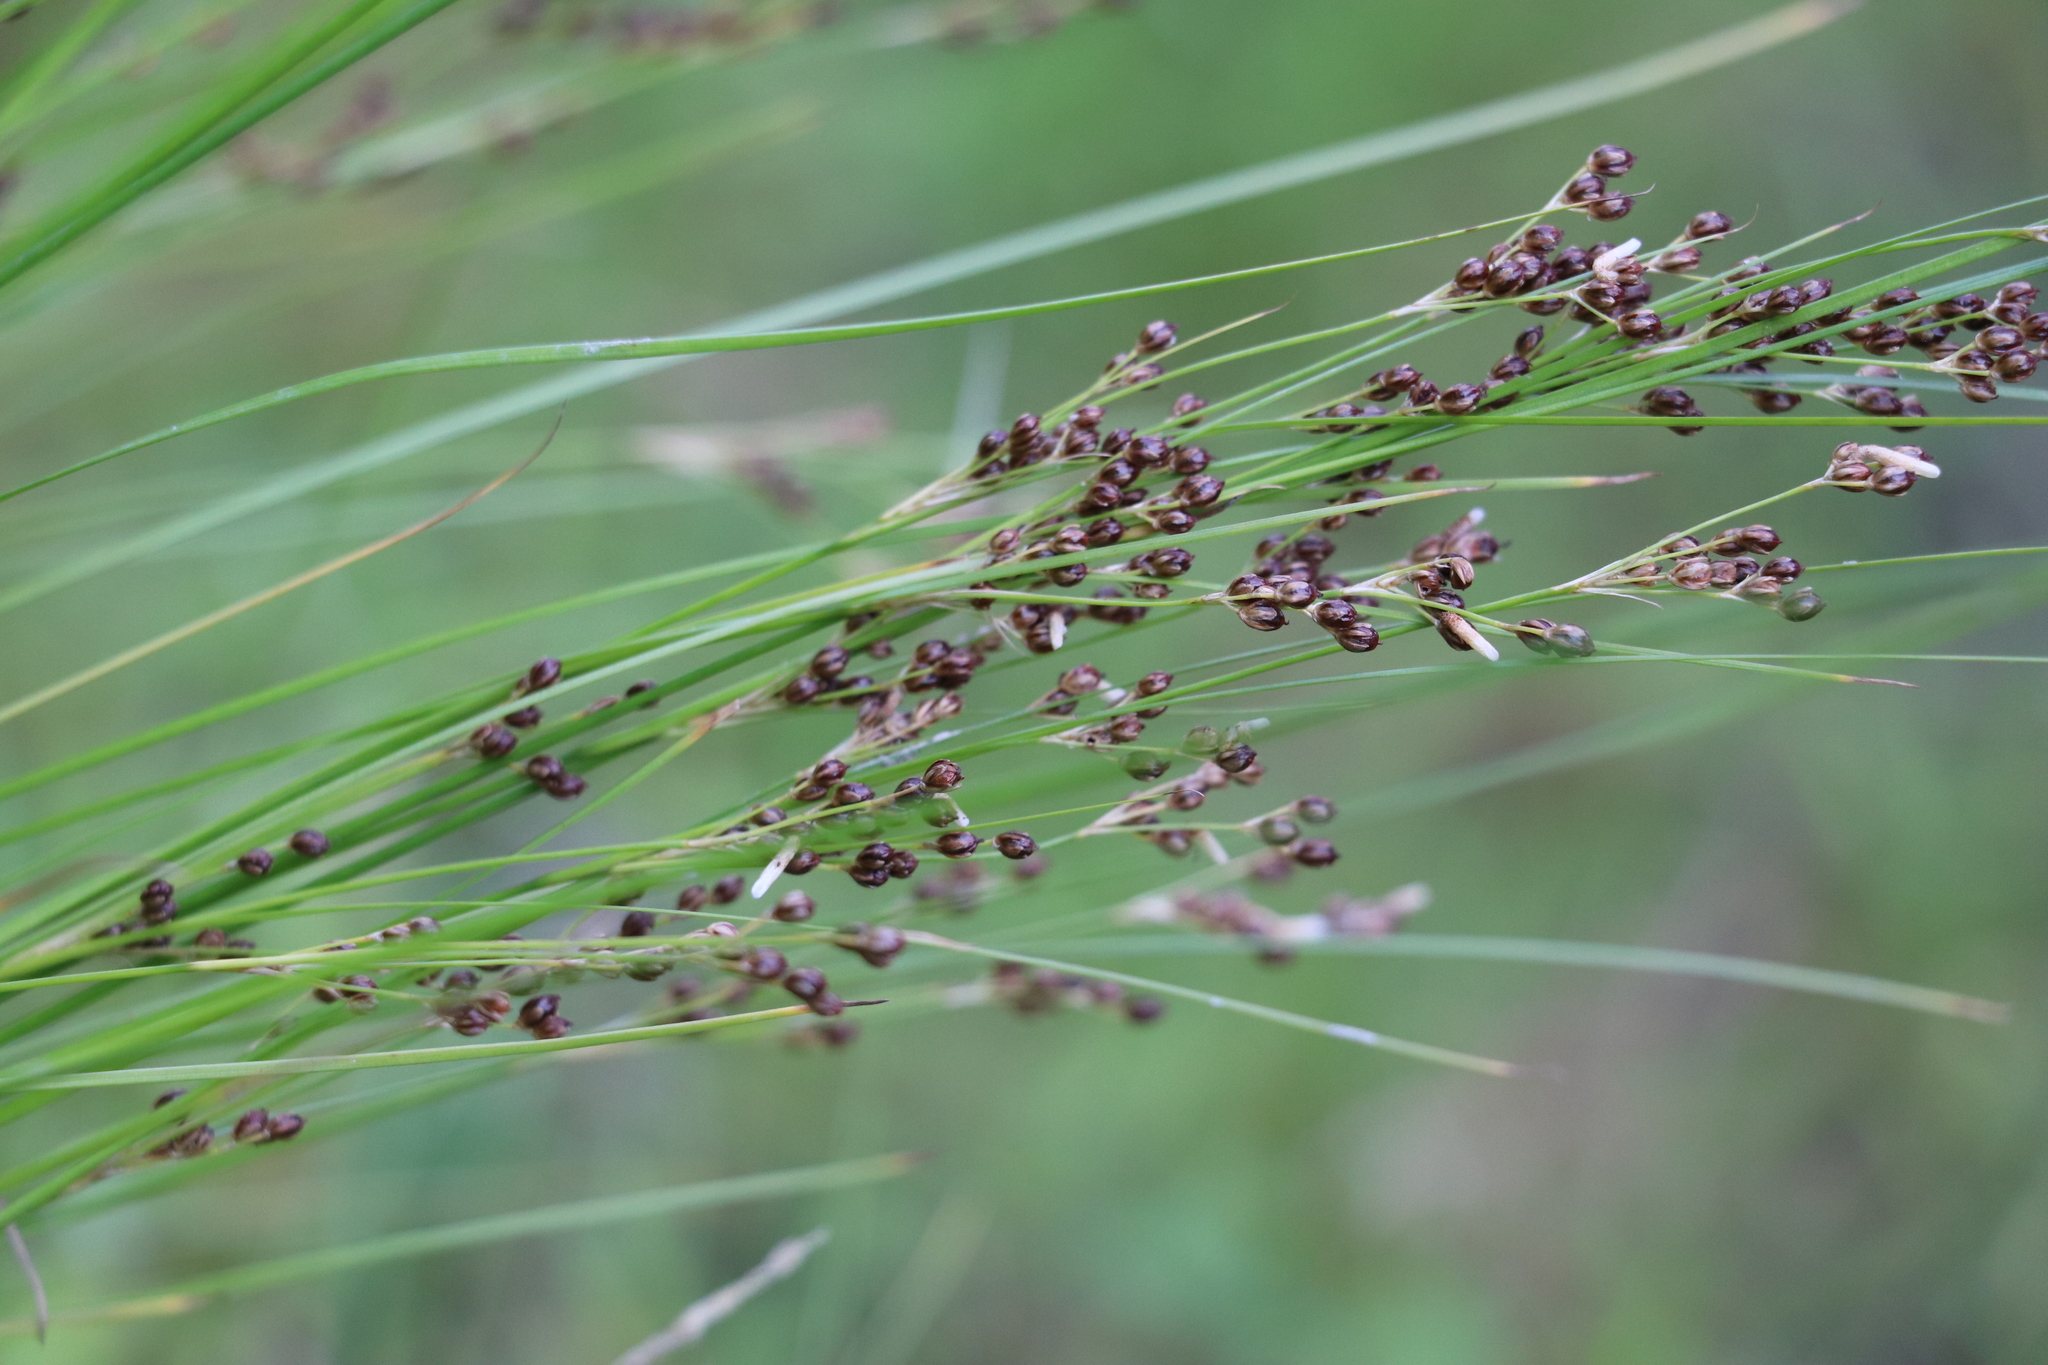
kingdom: Plantae
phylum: Tracheophyta
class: Liliopsida
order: Poales
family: Juncaceae
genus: Juncus
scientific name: Juncus compressus
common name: Round-fruited rush
